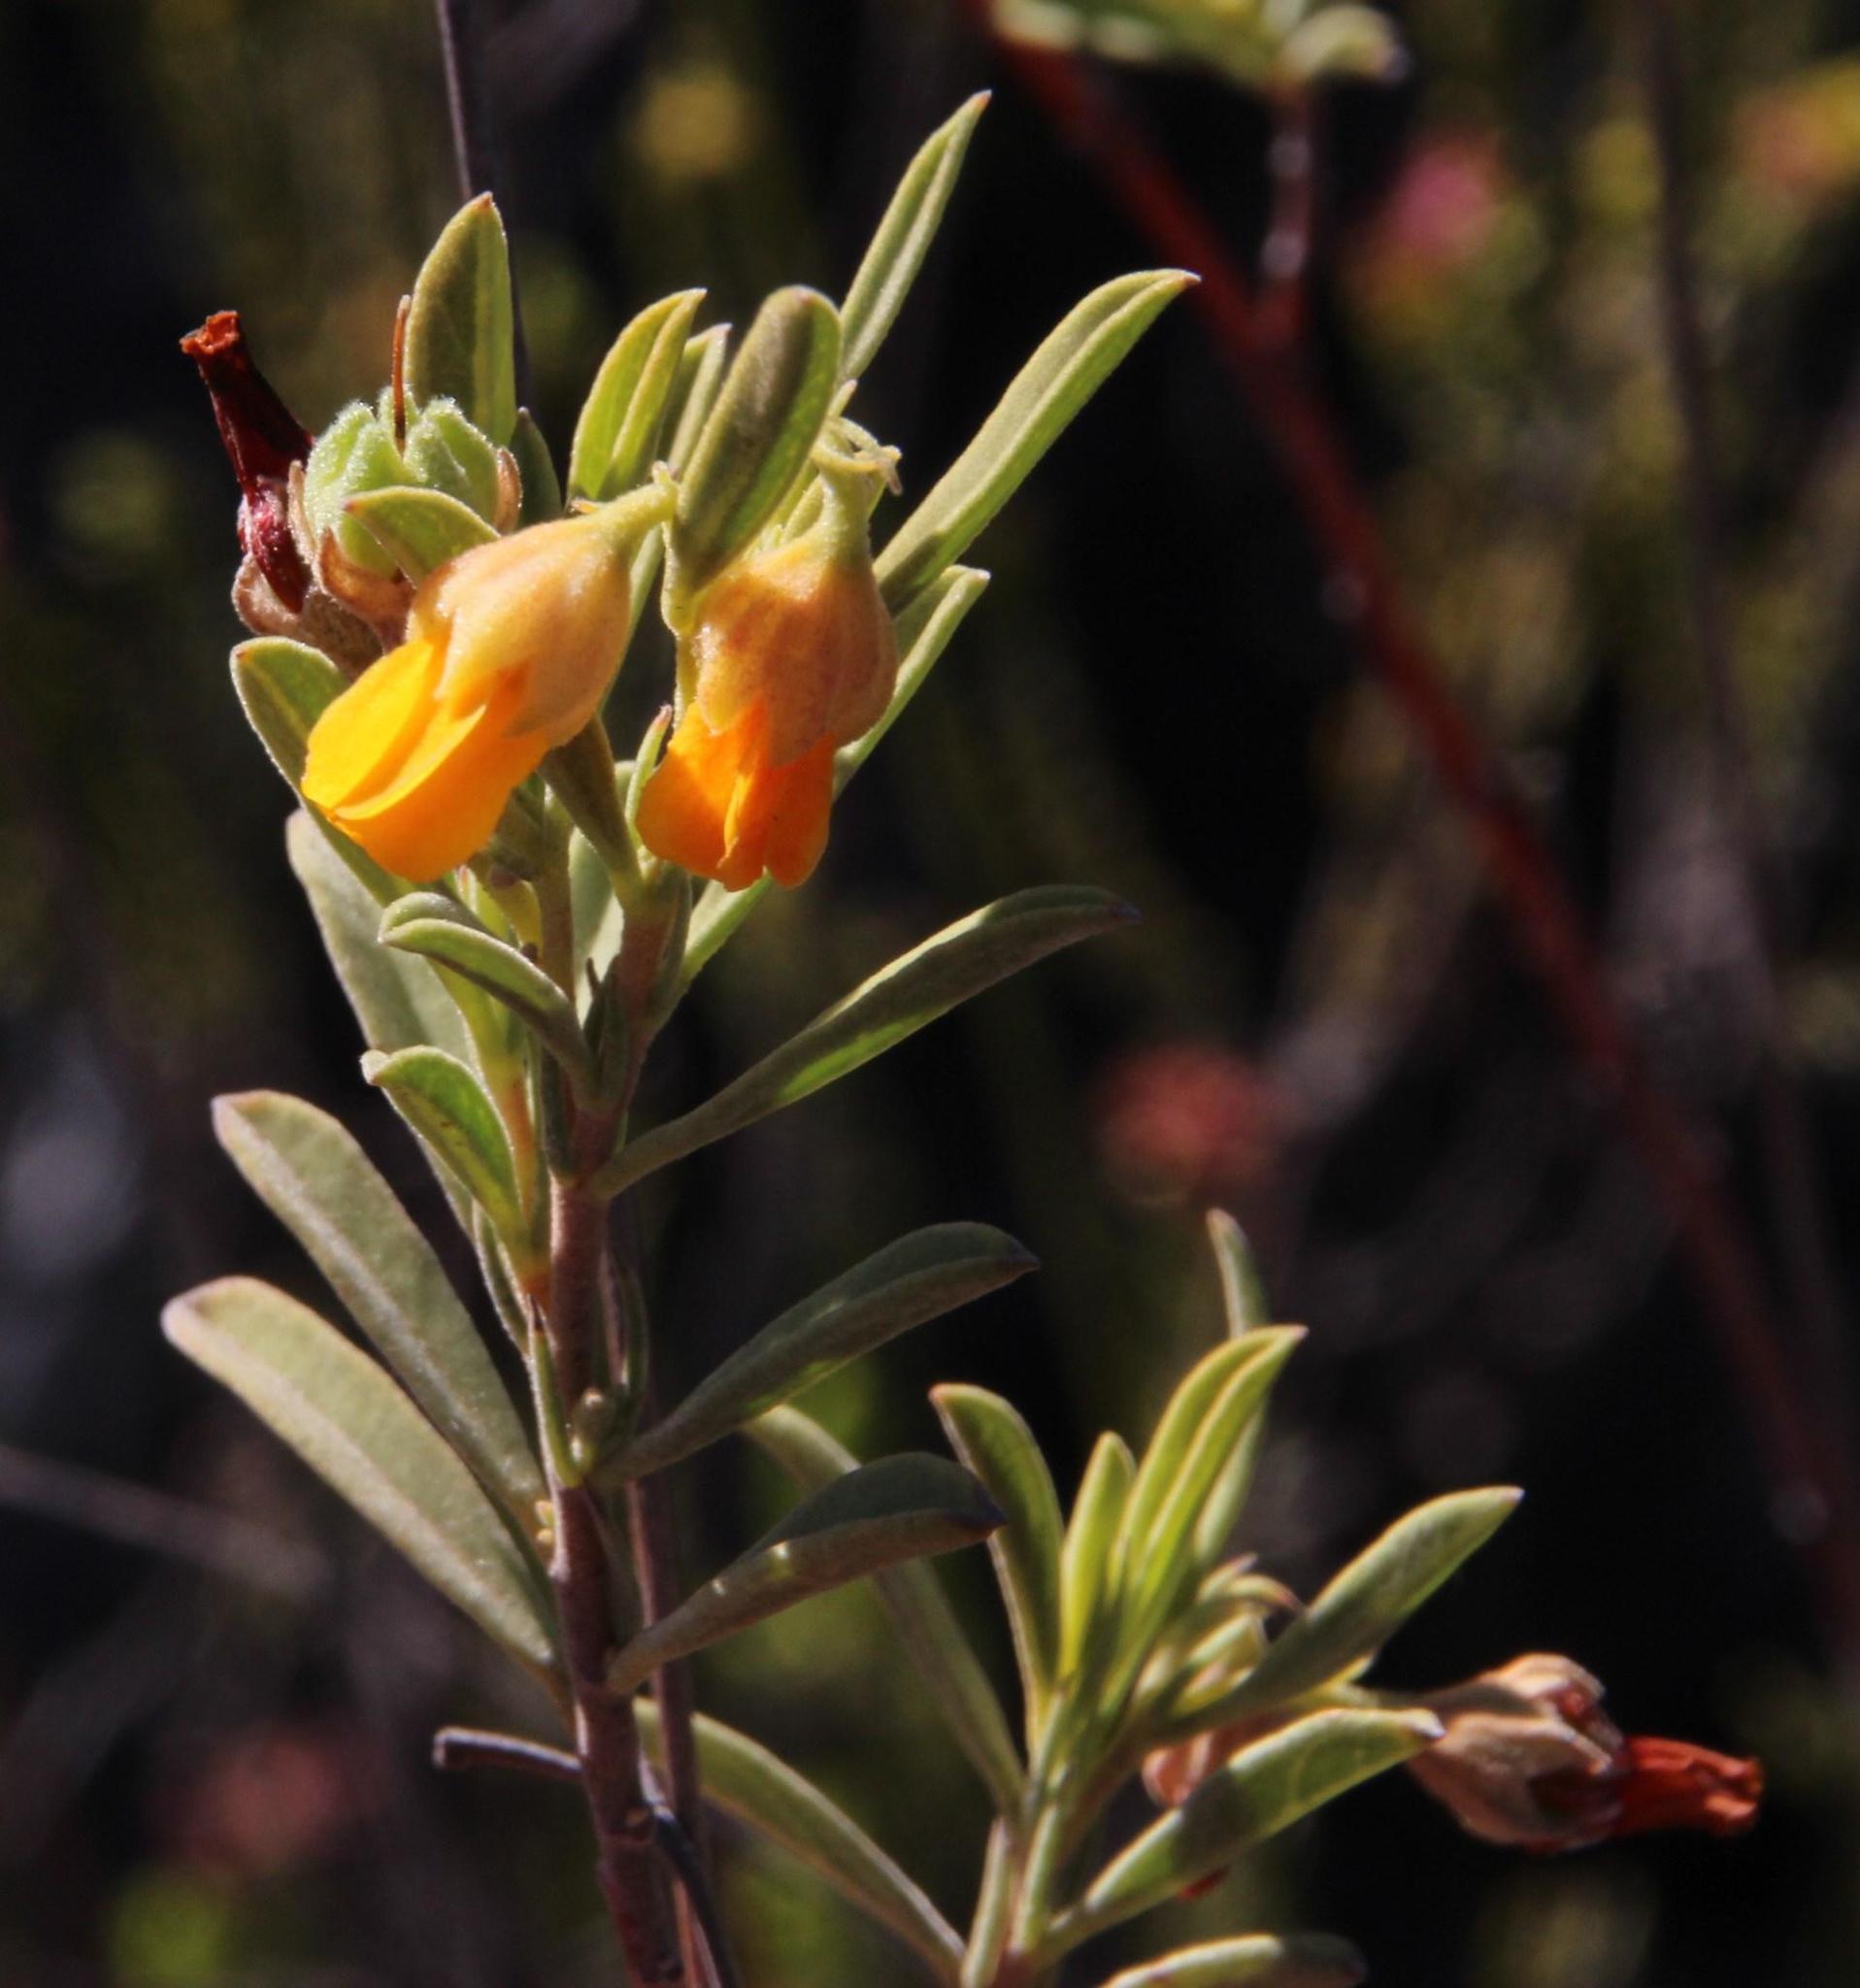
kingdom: Plantae
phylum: Tracheophyta
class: Magnoliopsida
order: Malvales
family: Malvaceae
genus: Hermannia
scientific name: Hermannia odorata
